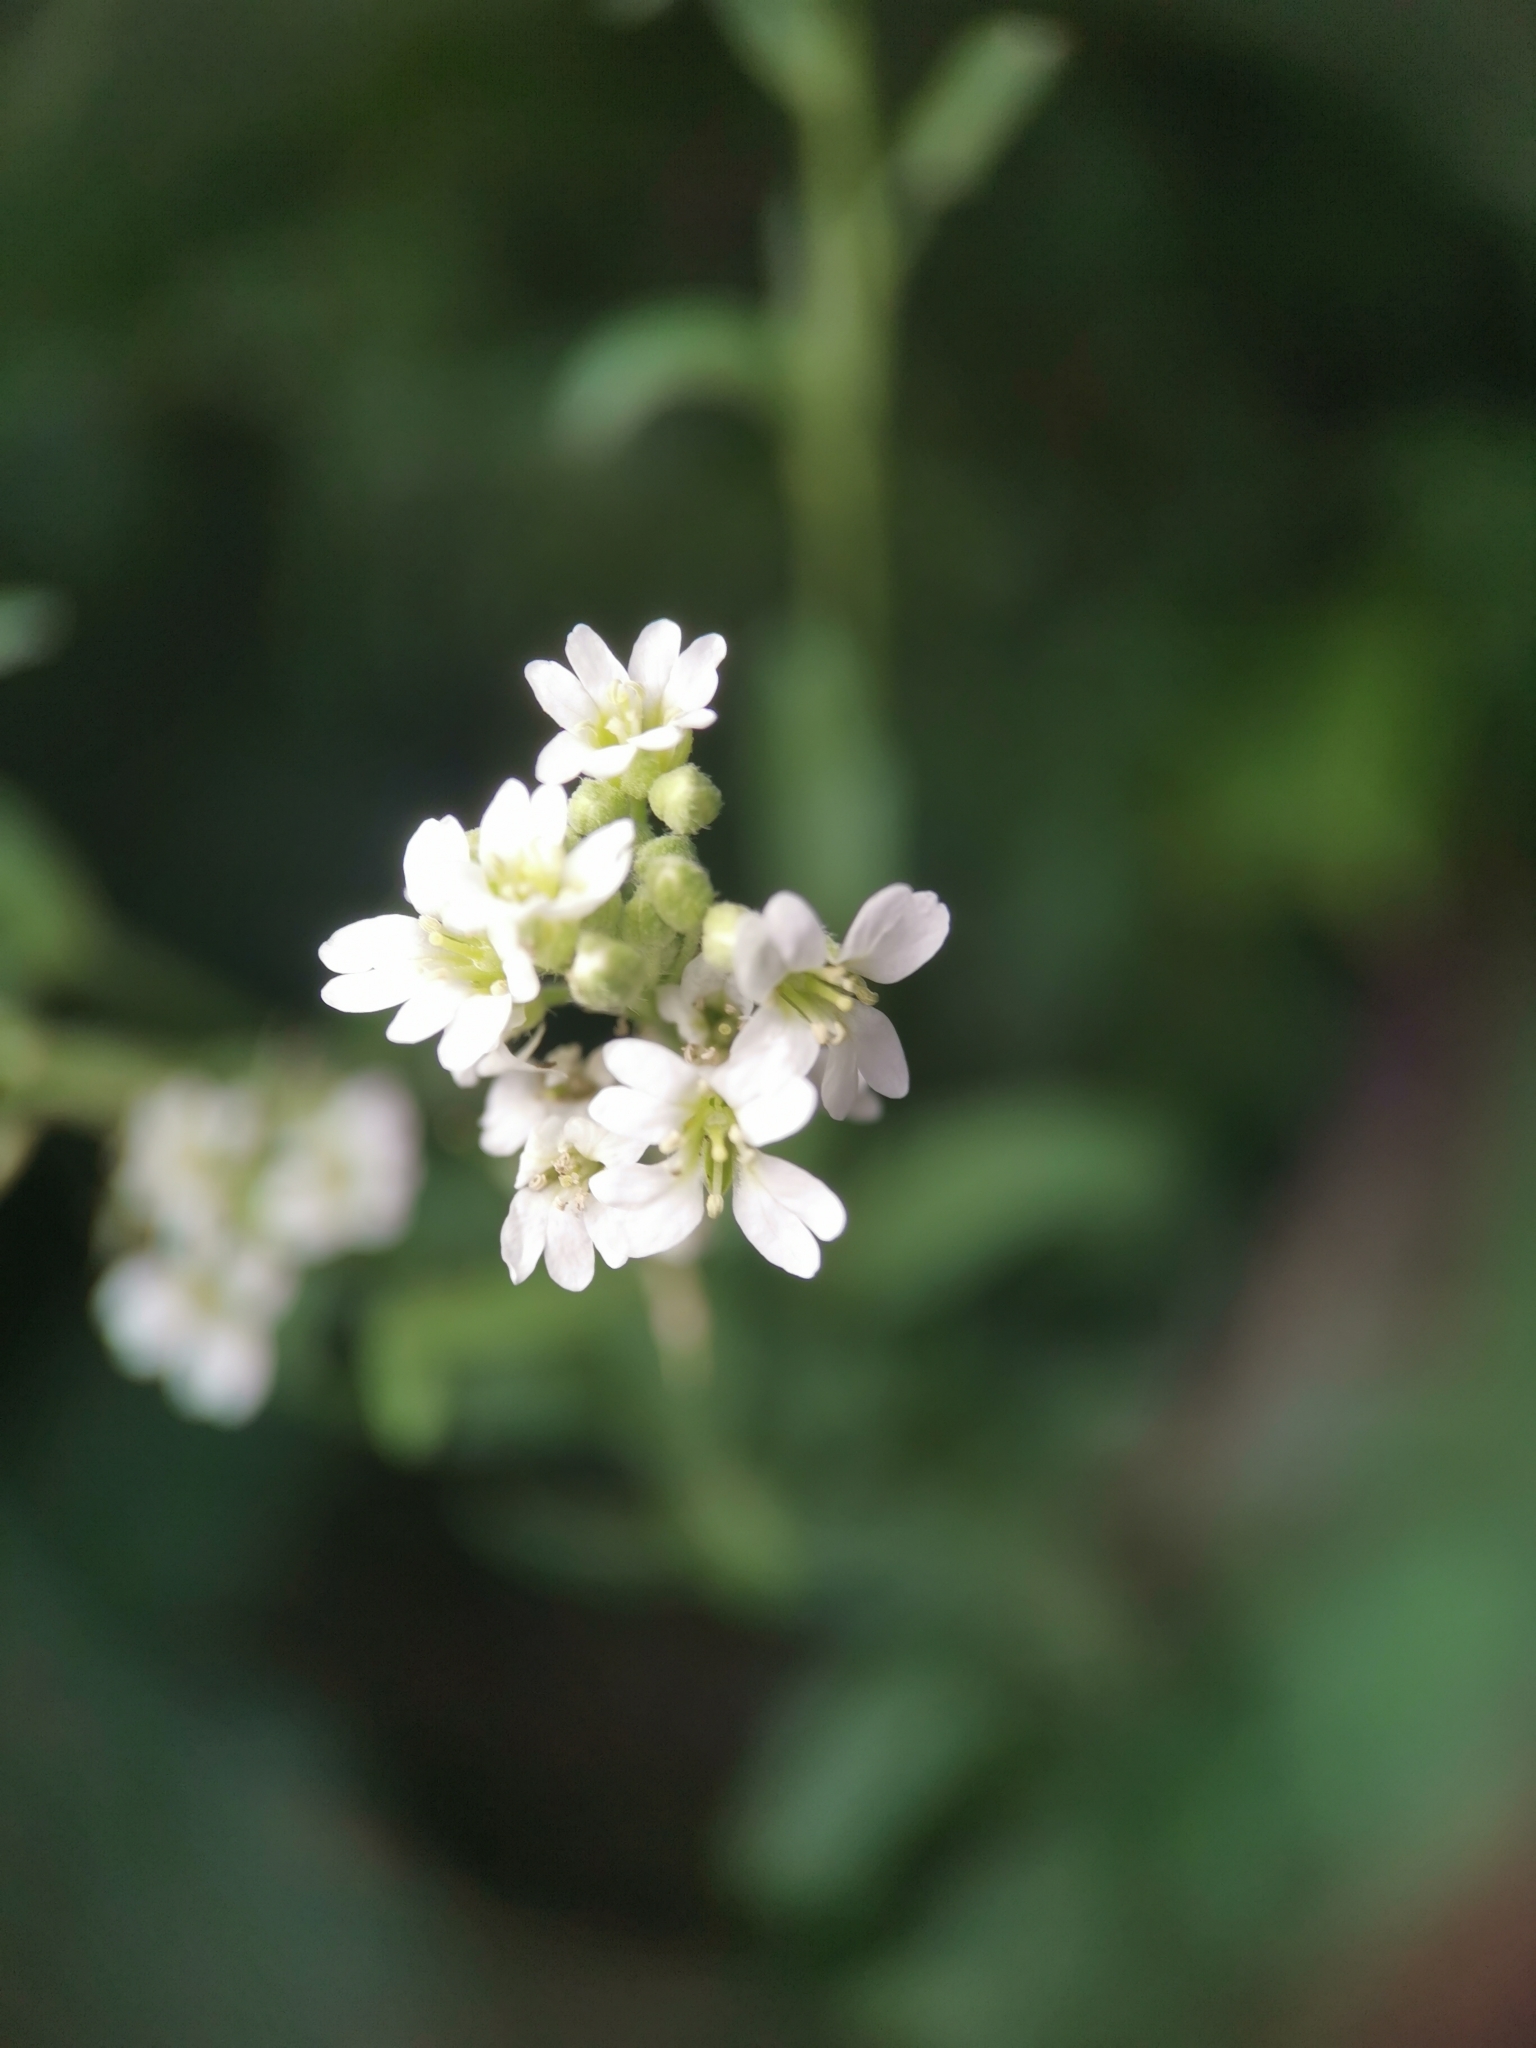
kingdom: Plantae
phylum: Tracheophyta
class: Magnoliopsida
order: Brassicales
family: Brassicaceae
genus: Berteroa
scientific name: Berteroa incana
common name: Hoary alison
